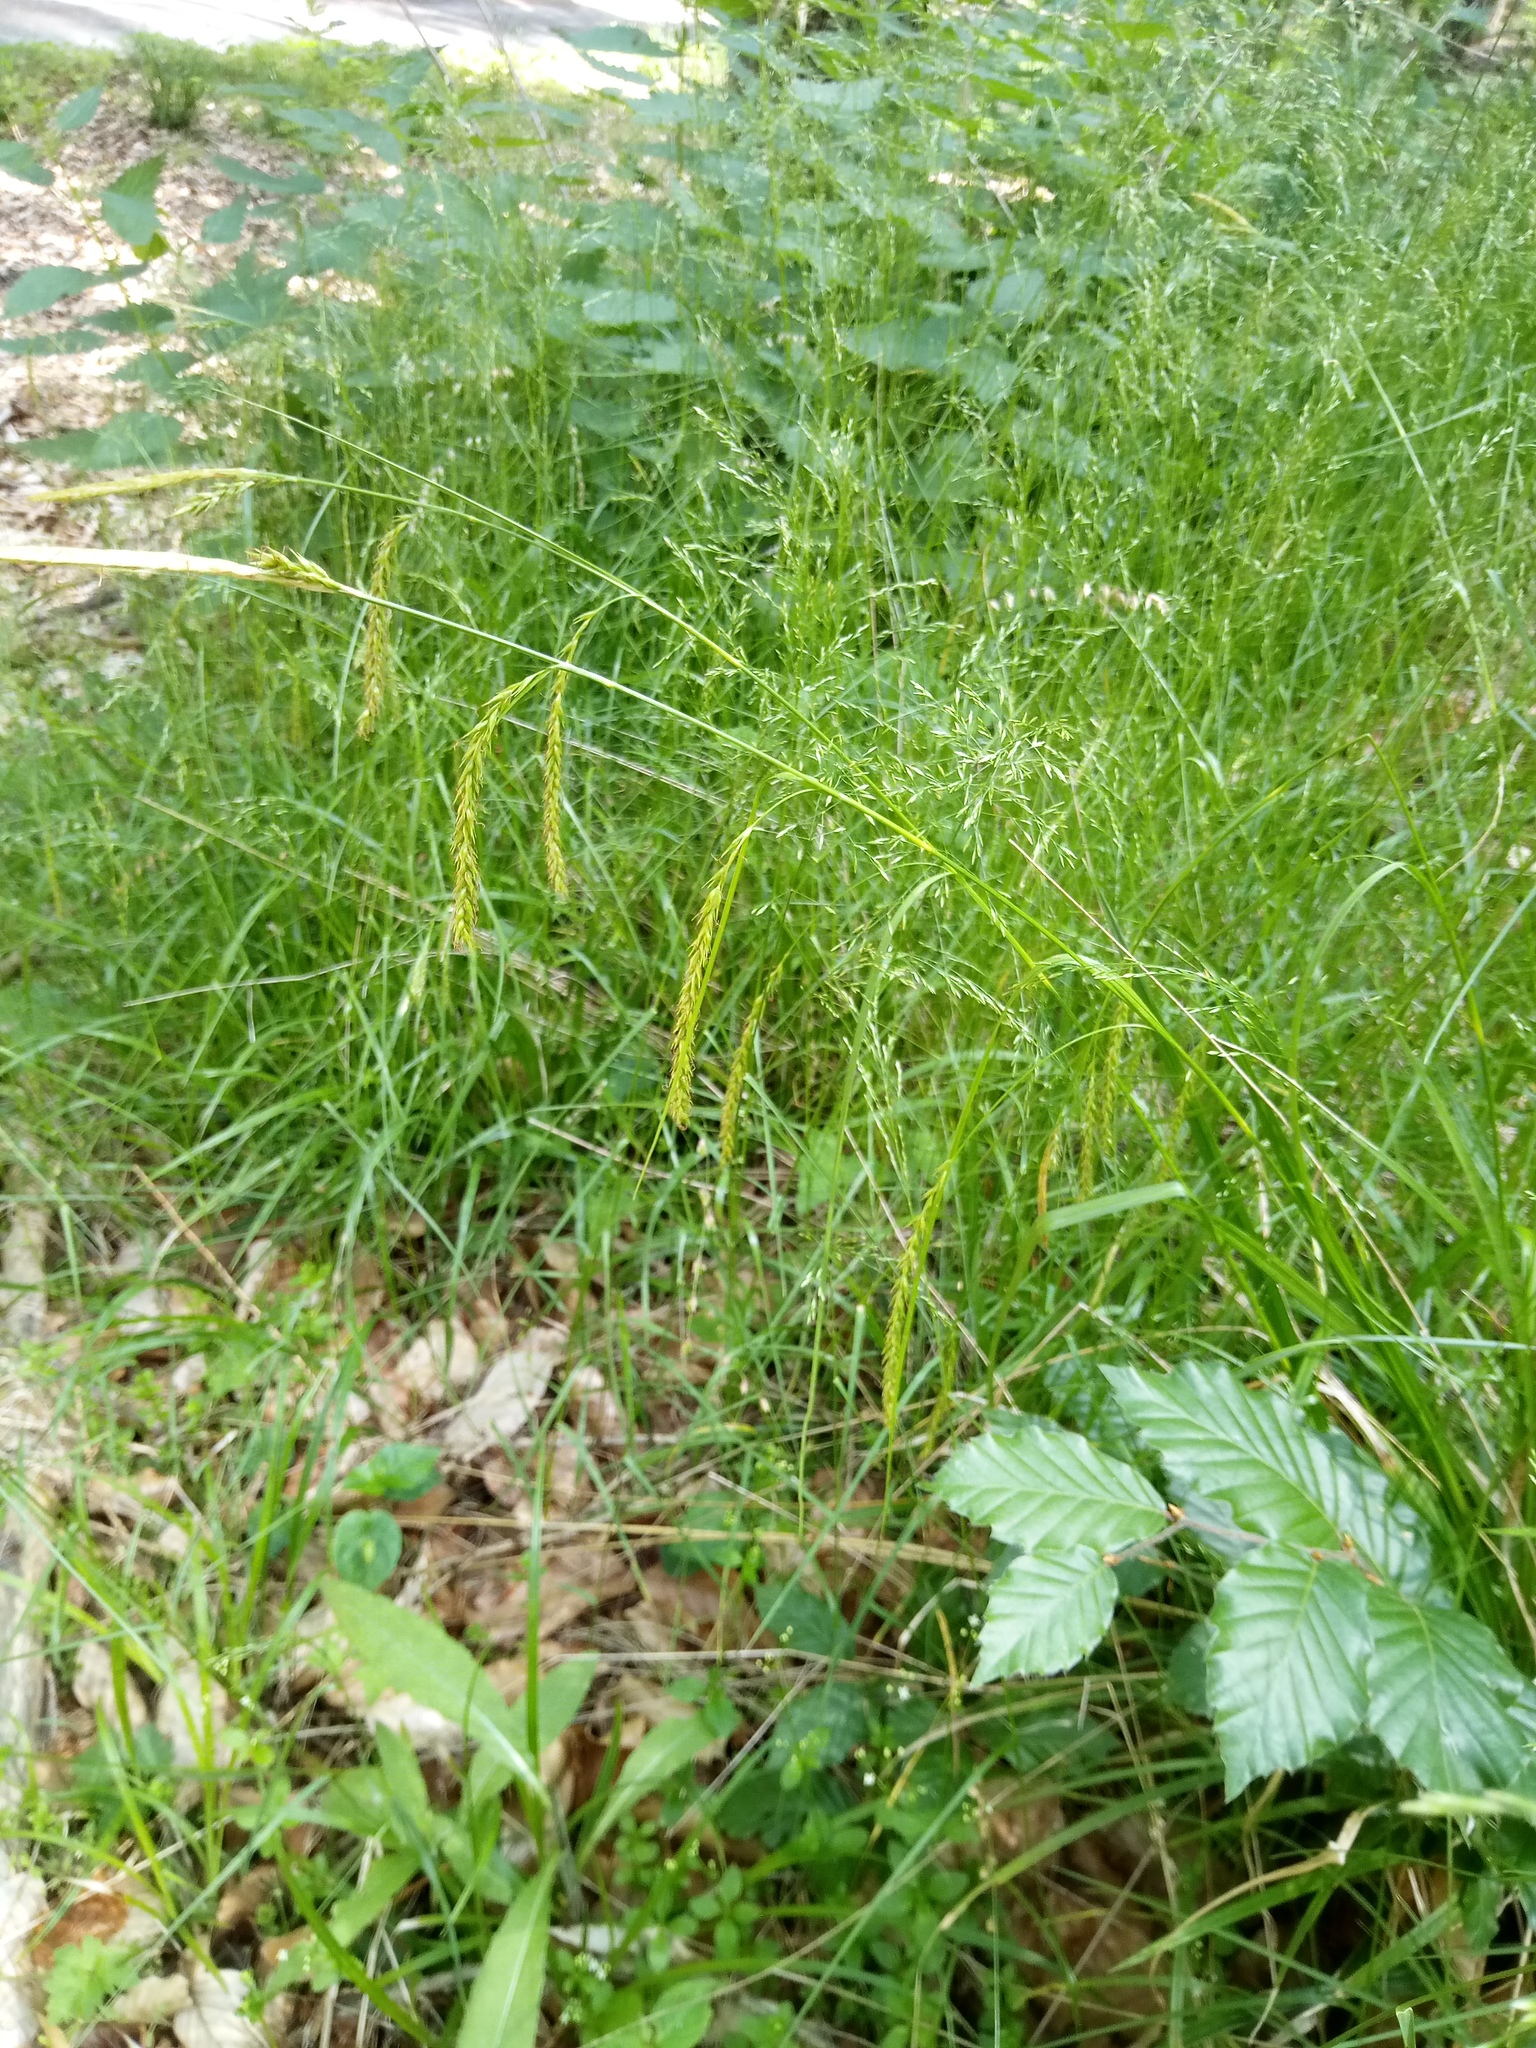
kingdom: Plantae
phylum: Tracheophyta
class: Liliopsida
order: Poales
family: Cyperaceae
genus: Carex
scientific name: Carex sylvatica
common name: Wood-sedge
